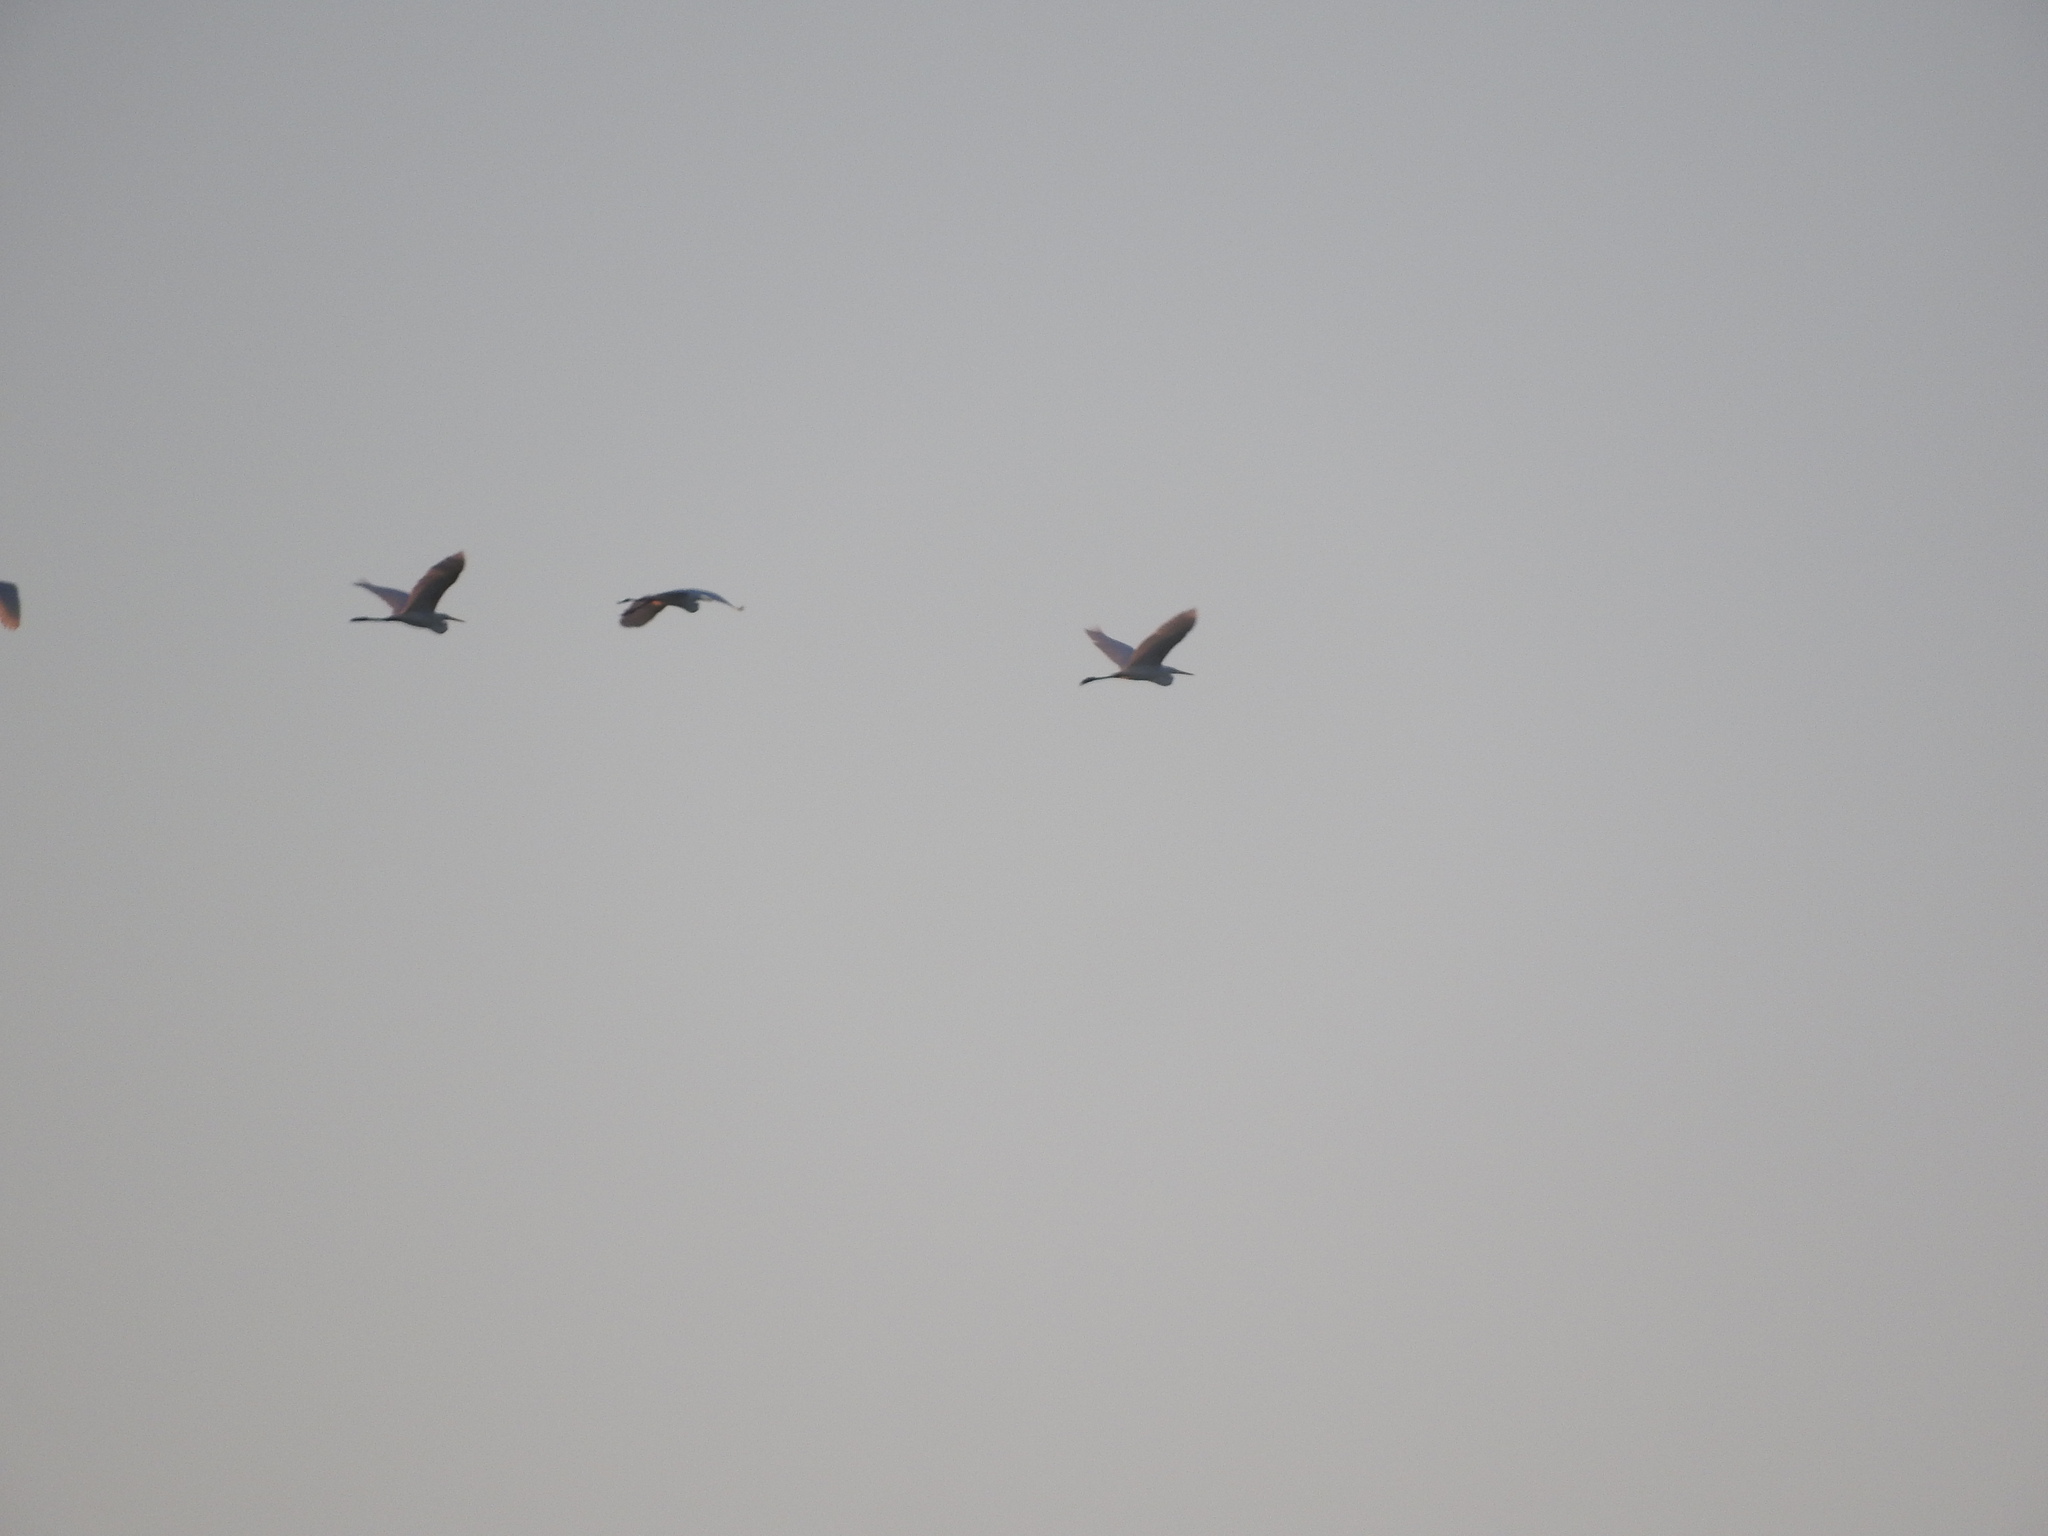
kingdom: Animalia
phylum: Chordata
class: Aves
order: Pelecaniformes
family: Ardeidae
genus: Ardea
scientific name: Ardea alba
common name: Great egret
